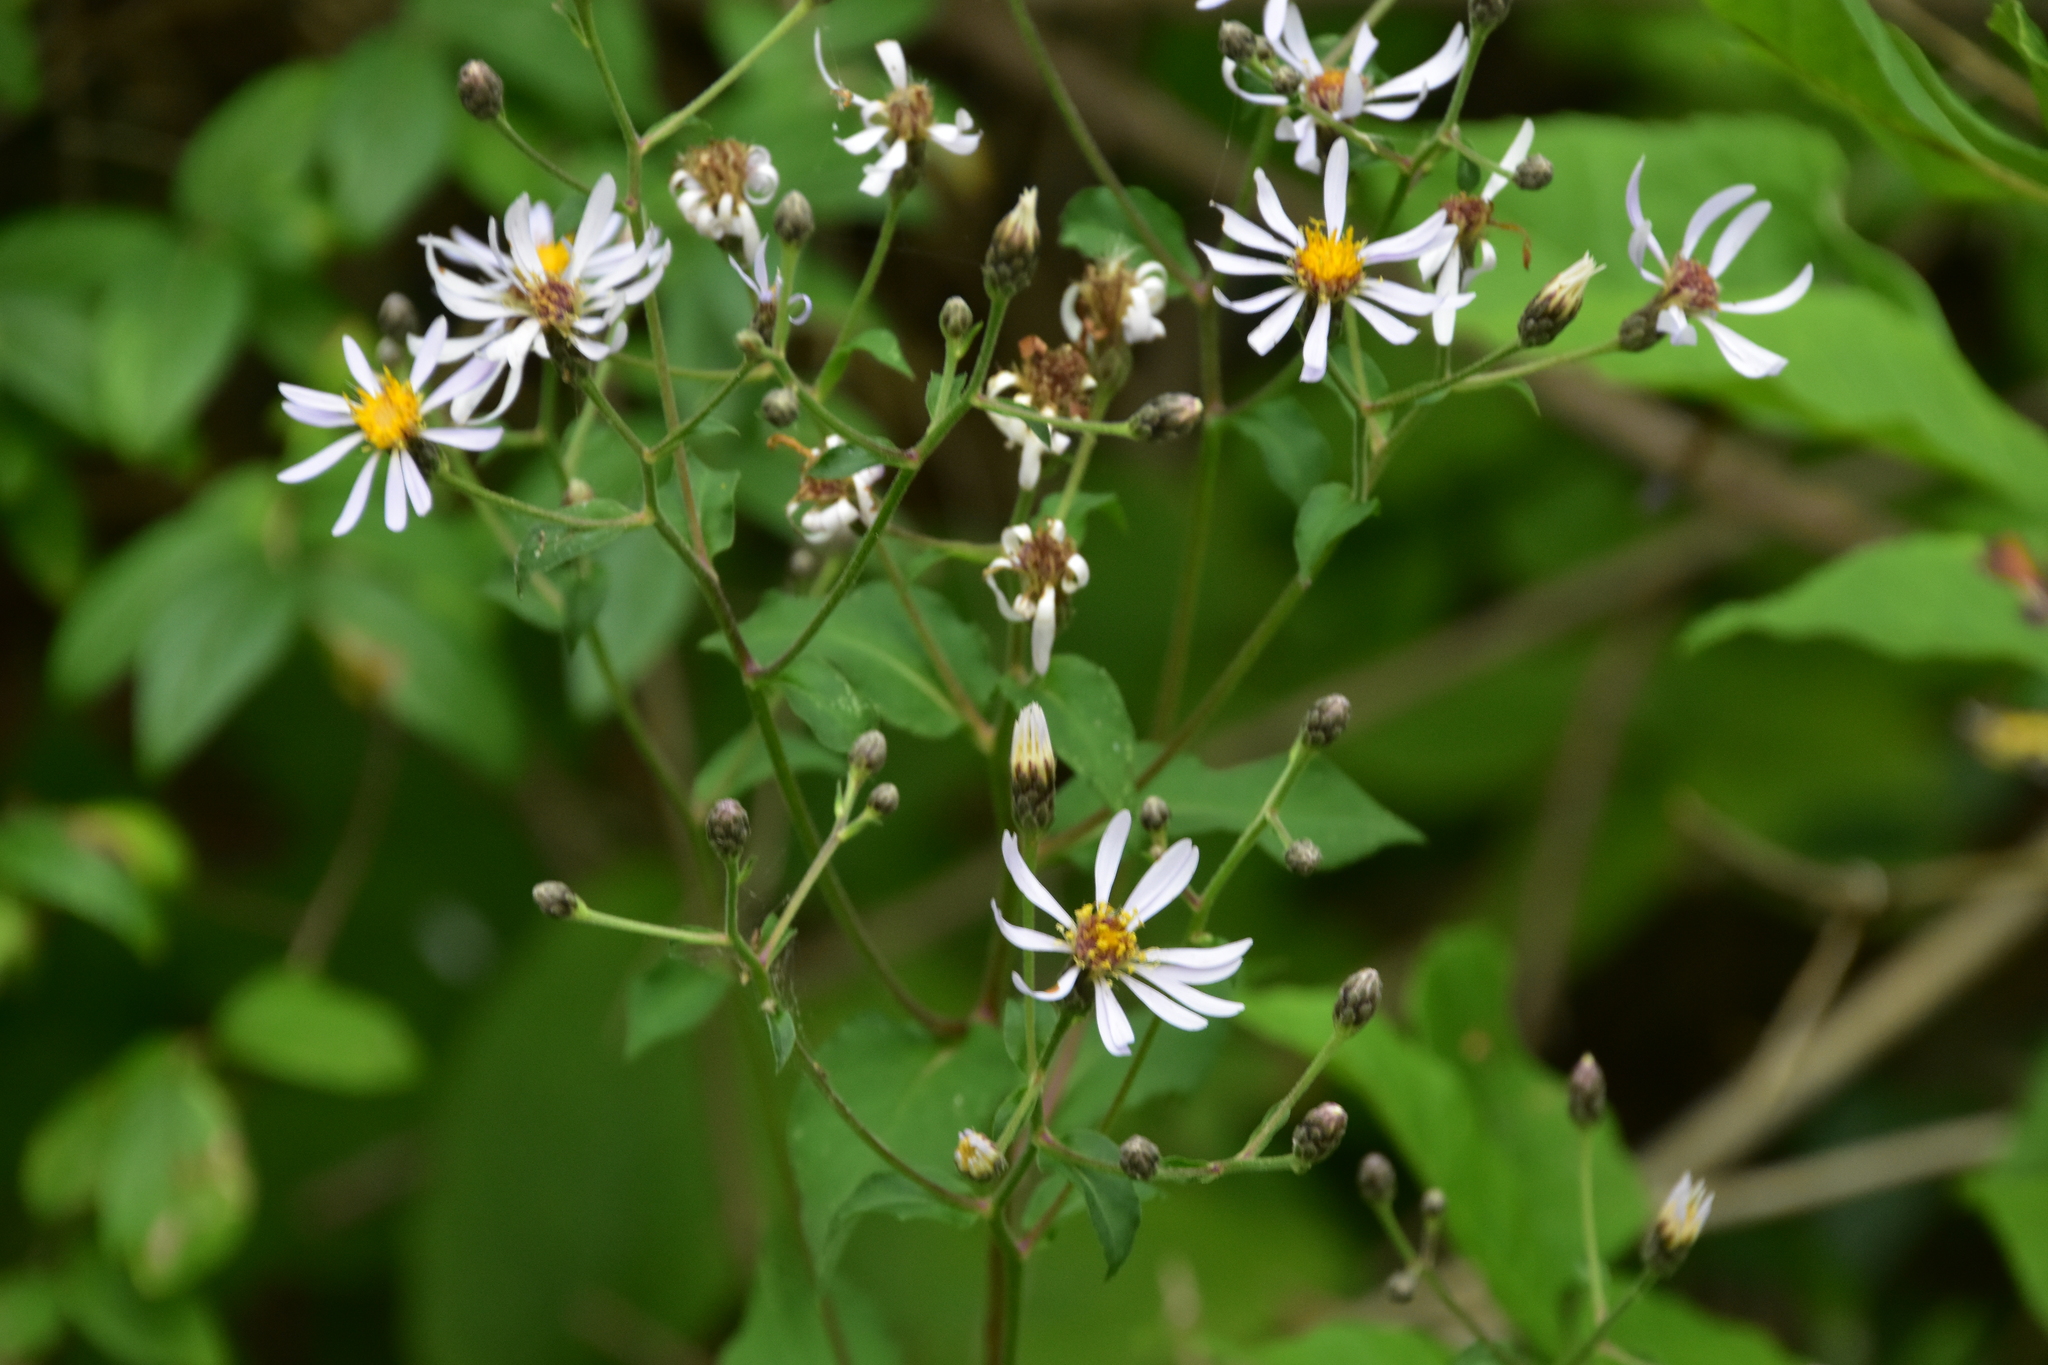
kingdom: Plantae
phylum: Tracheophyta
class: Magnoliopsida
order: Asterales
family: Asteraceae
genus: Eurybia
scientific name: Eurybia macrophylla
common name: Big-leaved aster
